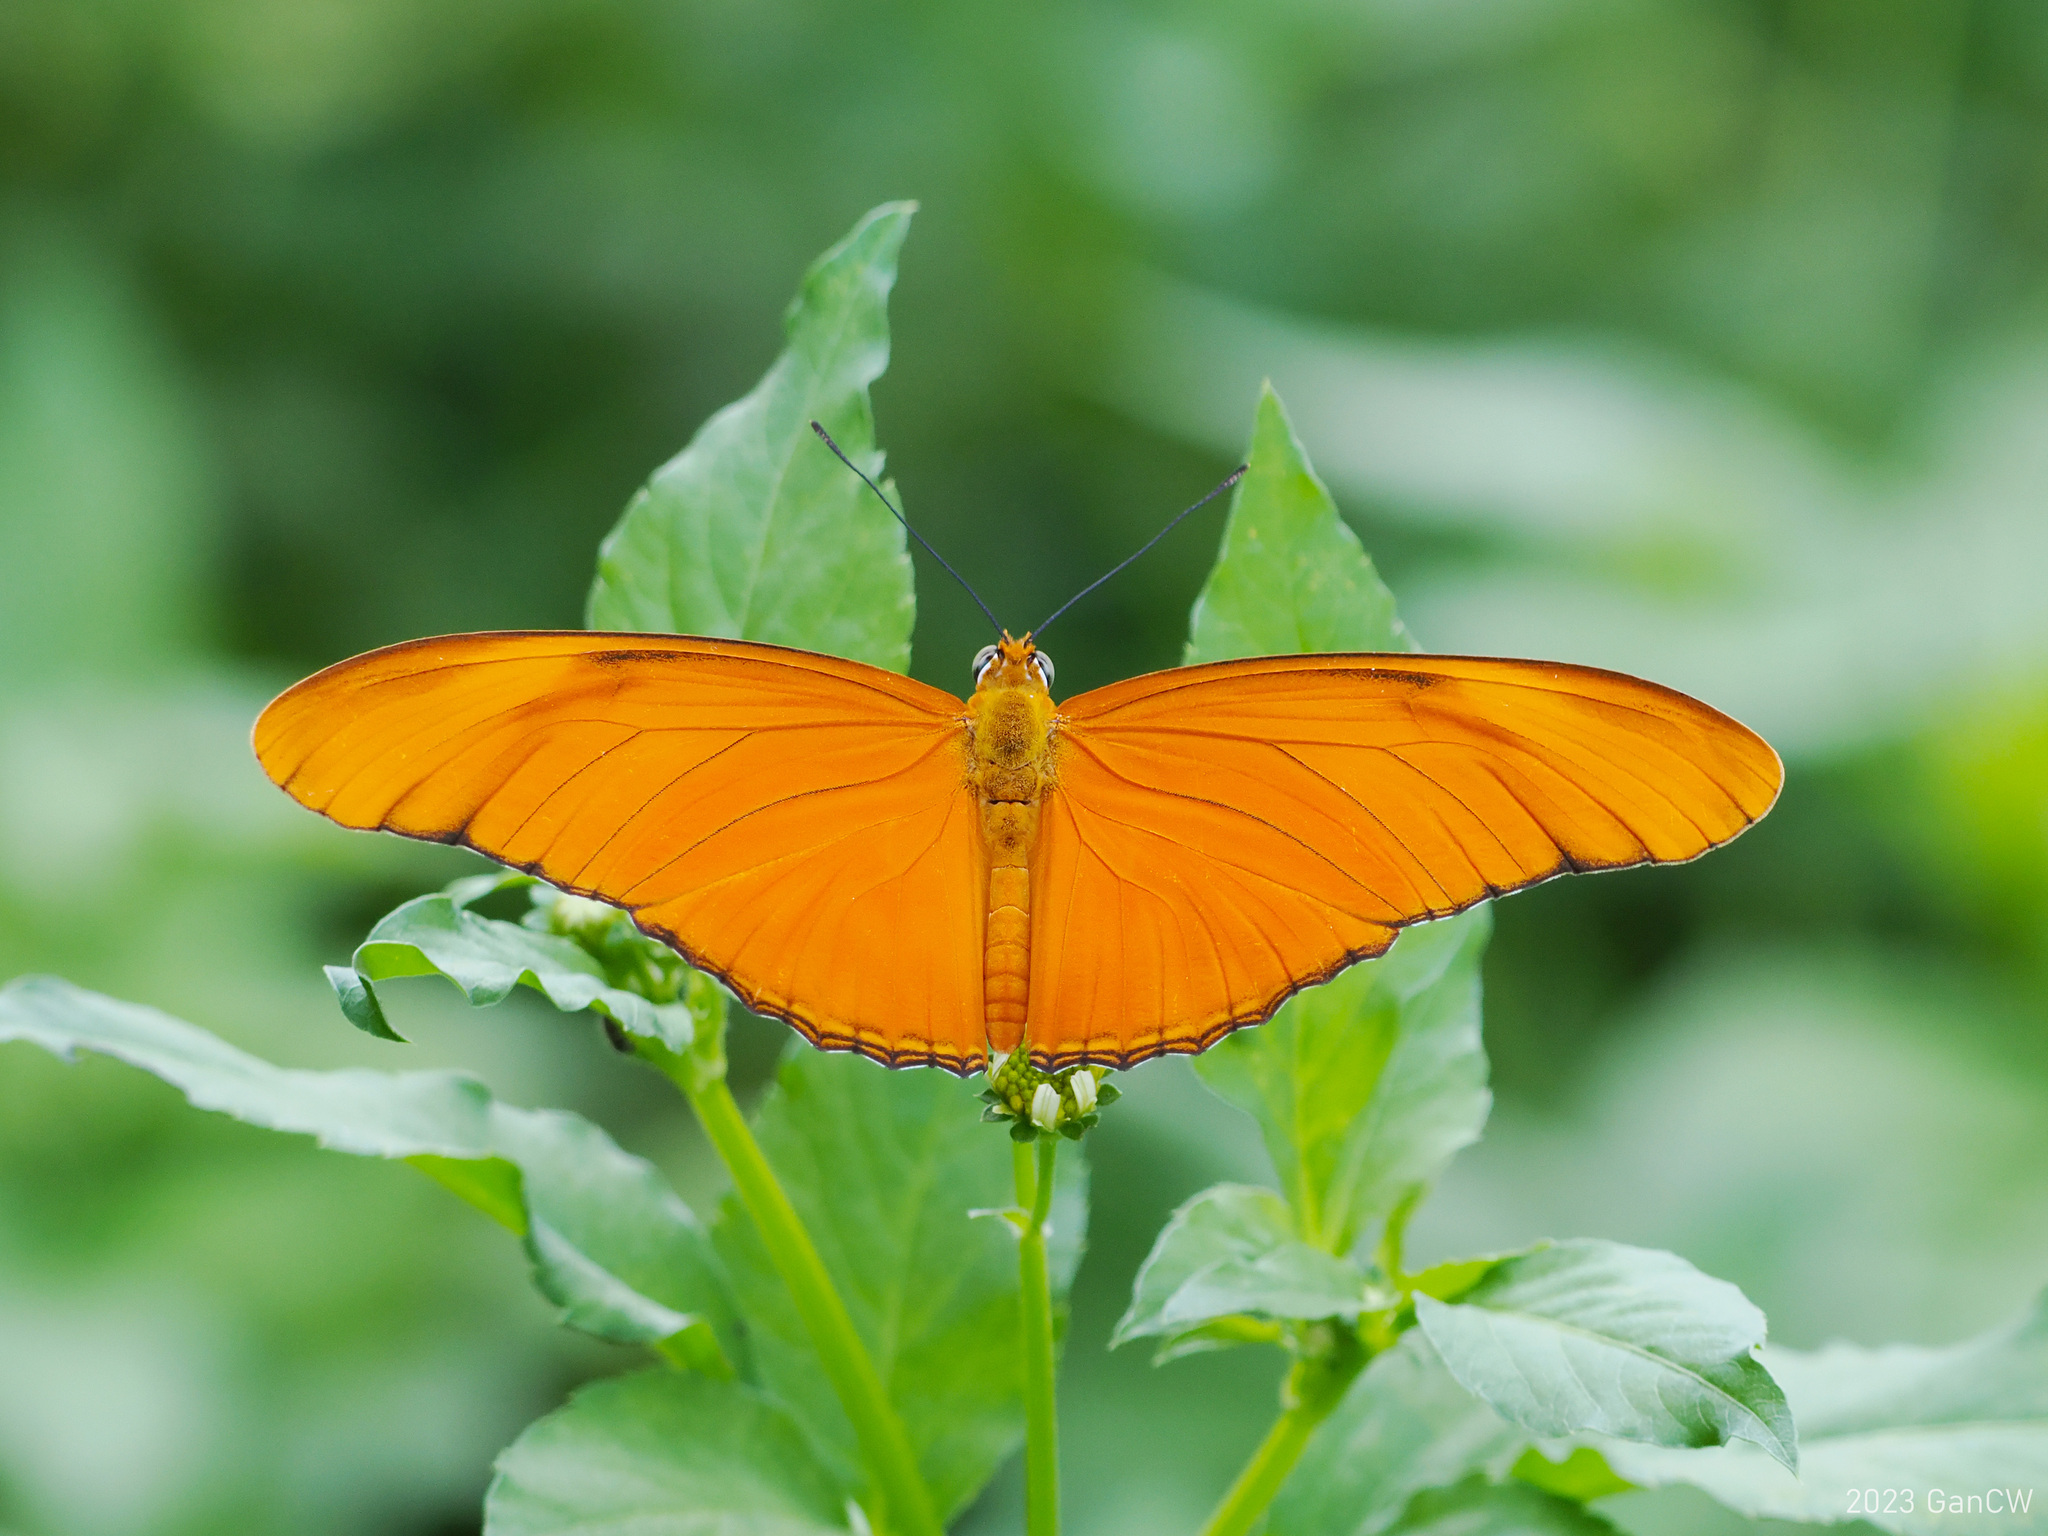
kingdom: Animalia
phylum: Arthropoda
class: Insecta
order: Lepidoptera
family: Nymphalidae
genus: Dryas
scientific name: Dryas iulia
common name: Flambeau
